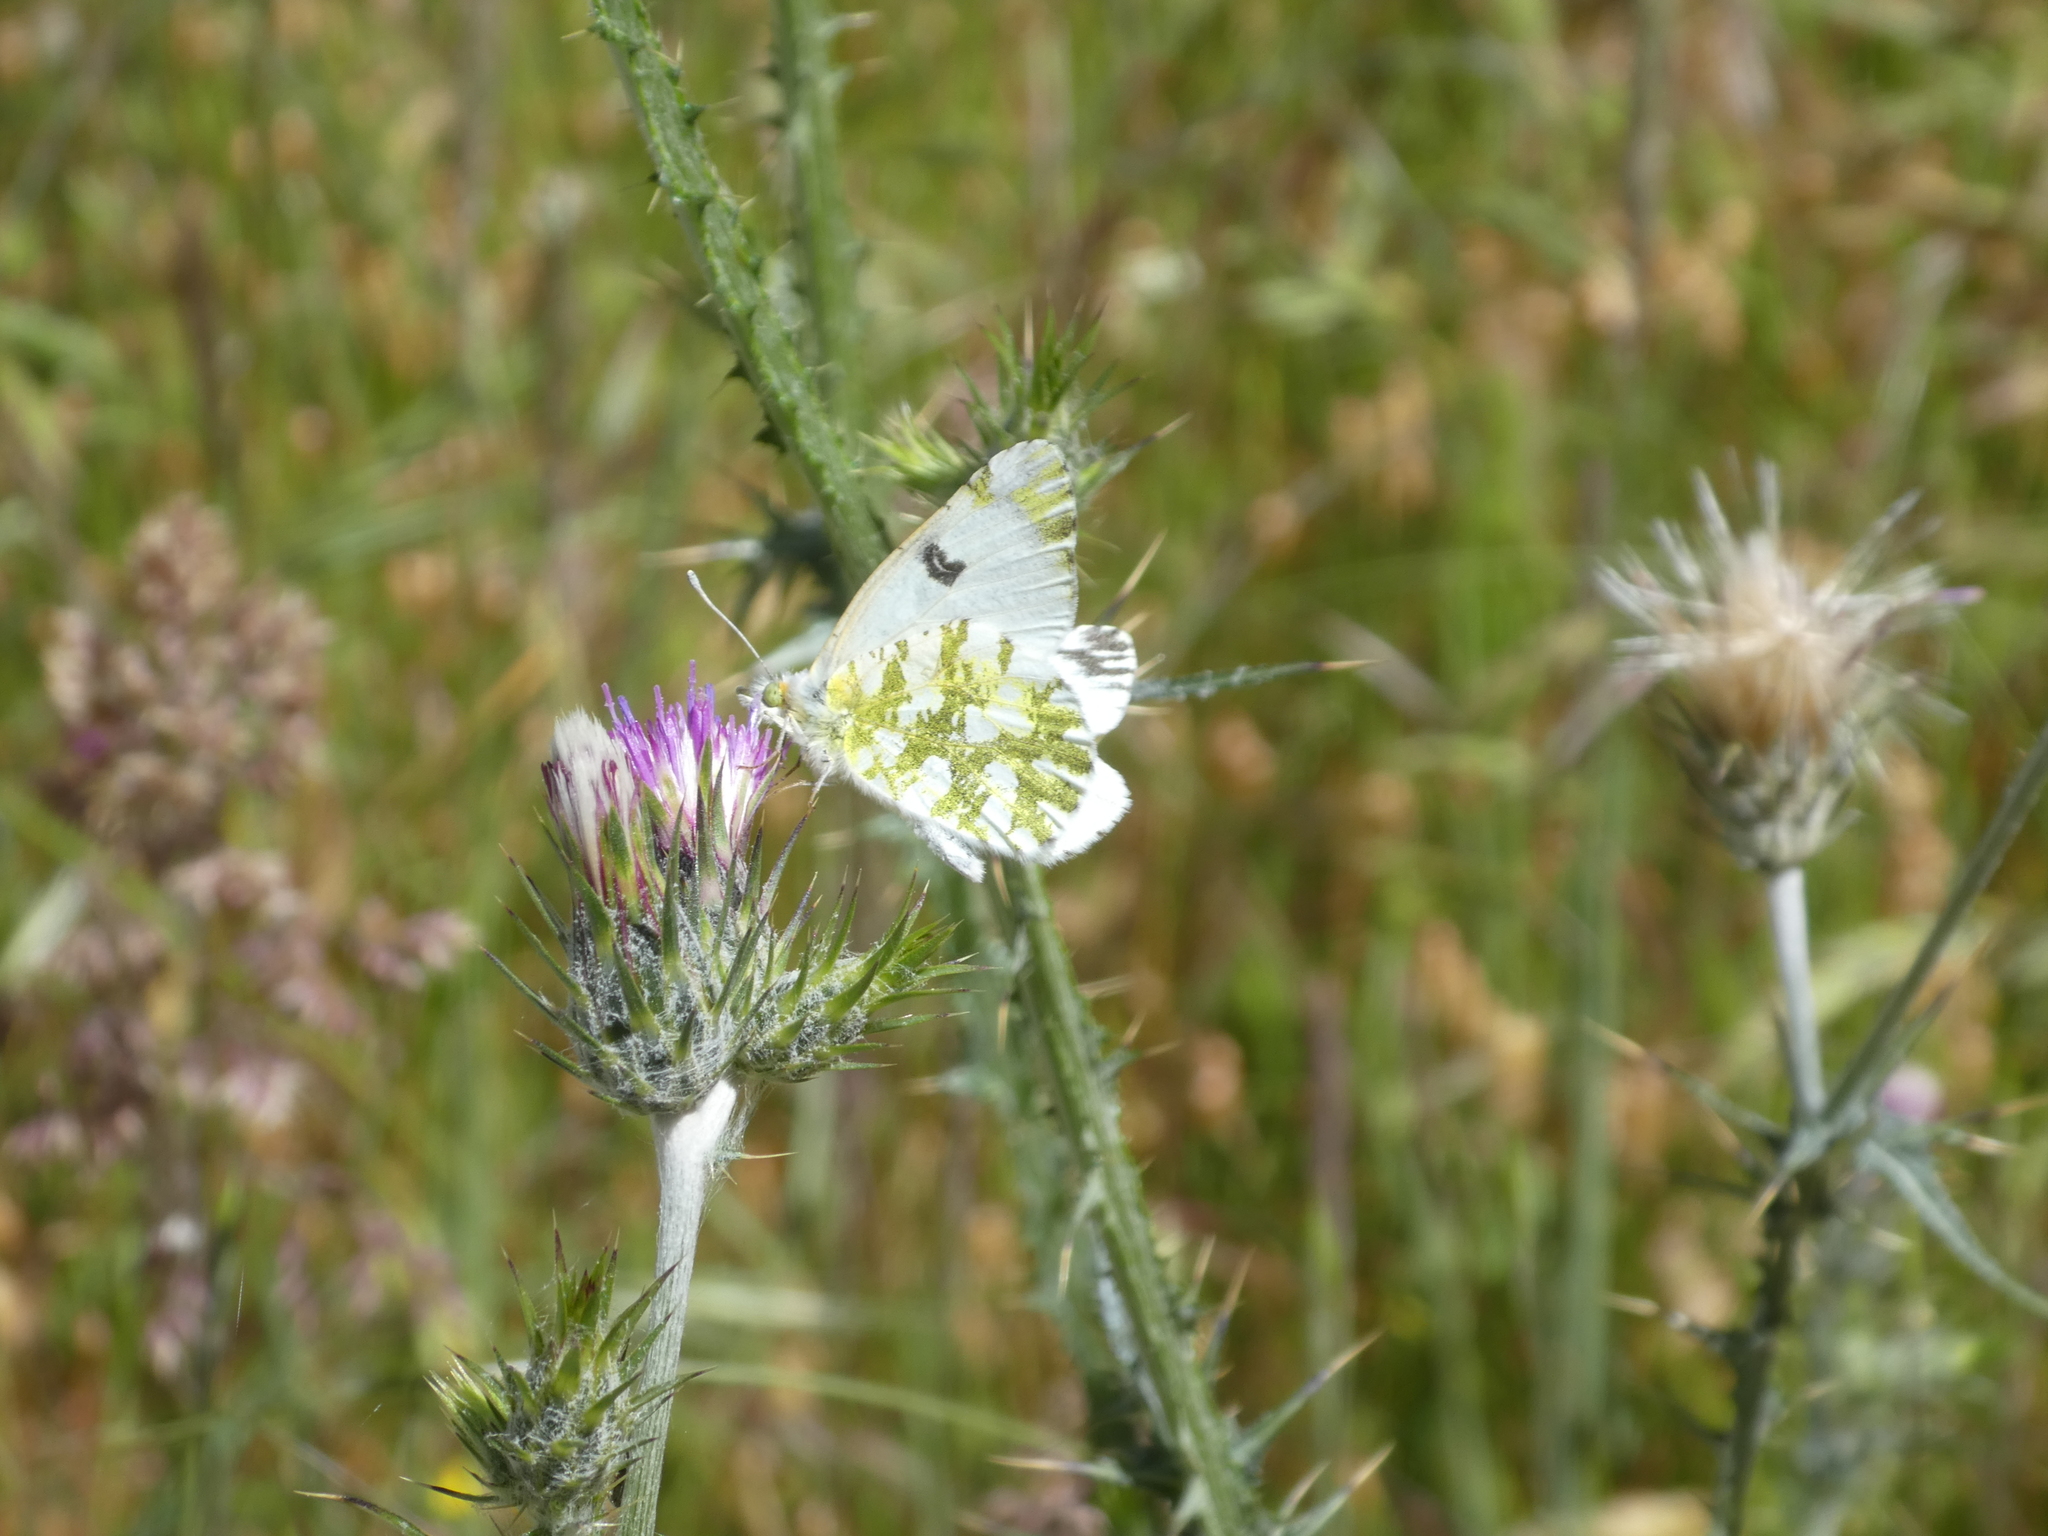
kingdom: Animalia
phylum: Arthropoda
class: Insecta
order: Lepidoptera
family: Pieridae
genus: Euchloe
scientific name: Euchloe ausonides
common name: Creamy marblewing
